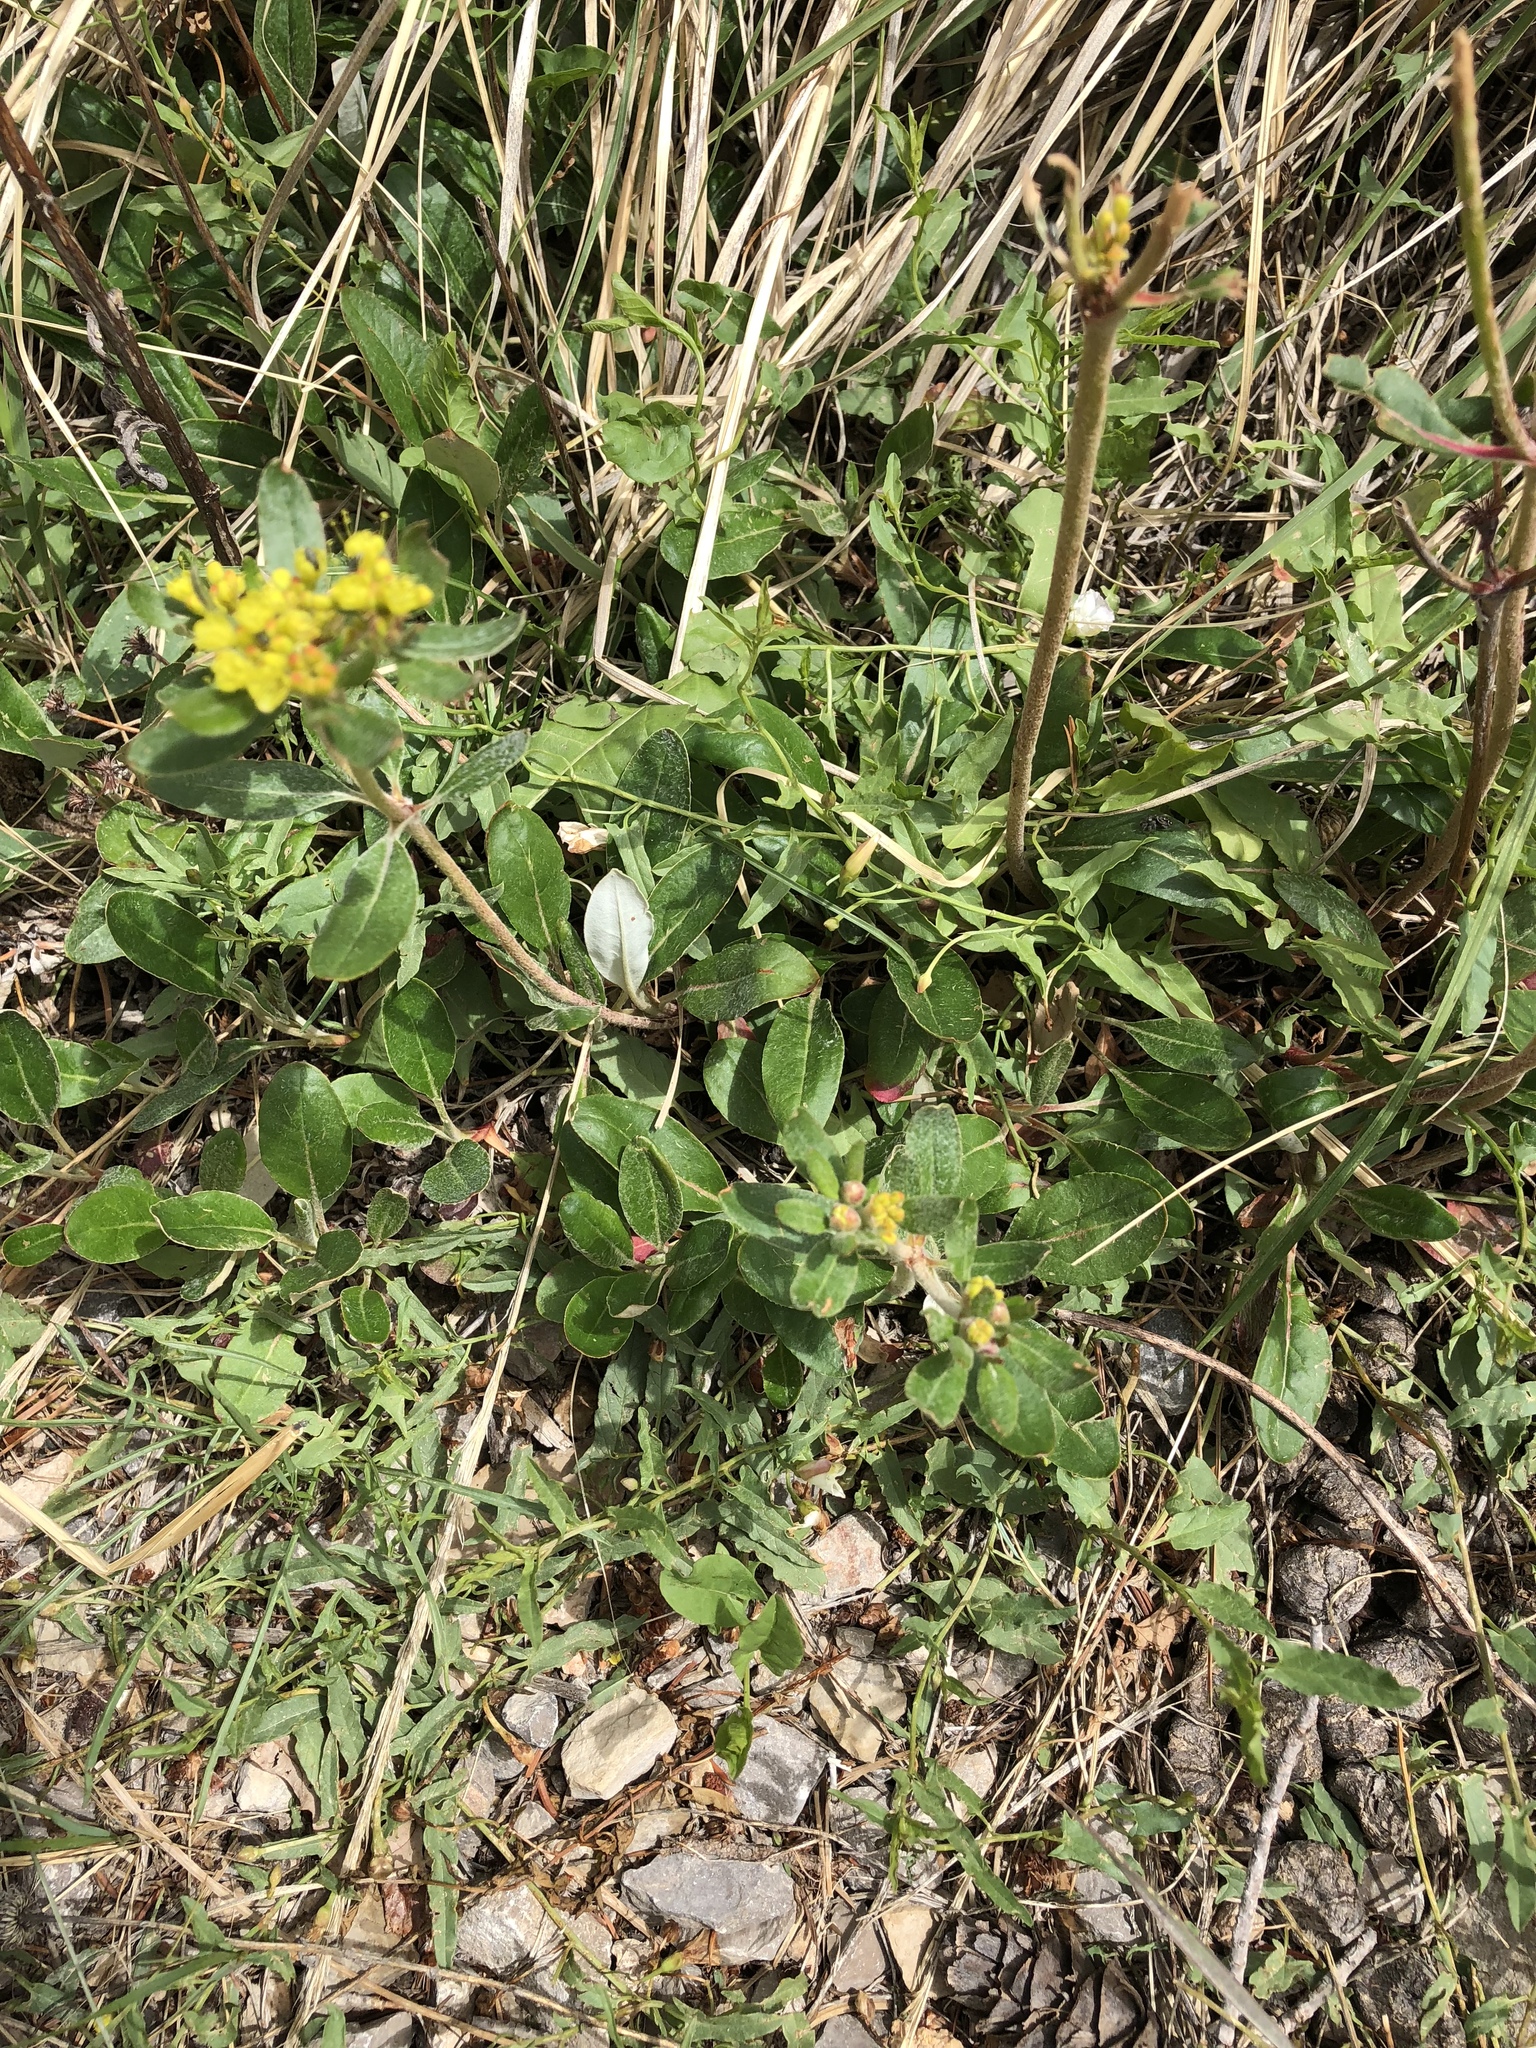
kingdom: Plantae
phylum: Tracheophyta
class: Magnoliopsida
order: Caryophyllales
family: Polygonaceae
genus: Eriogonum
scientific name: Eriogonum wootonii
